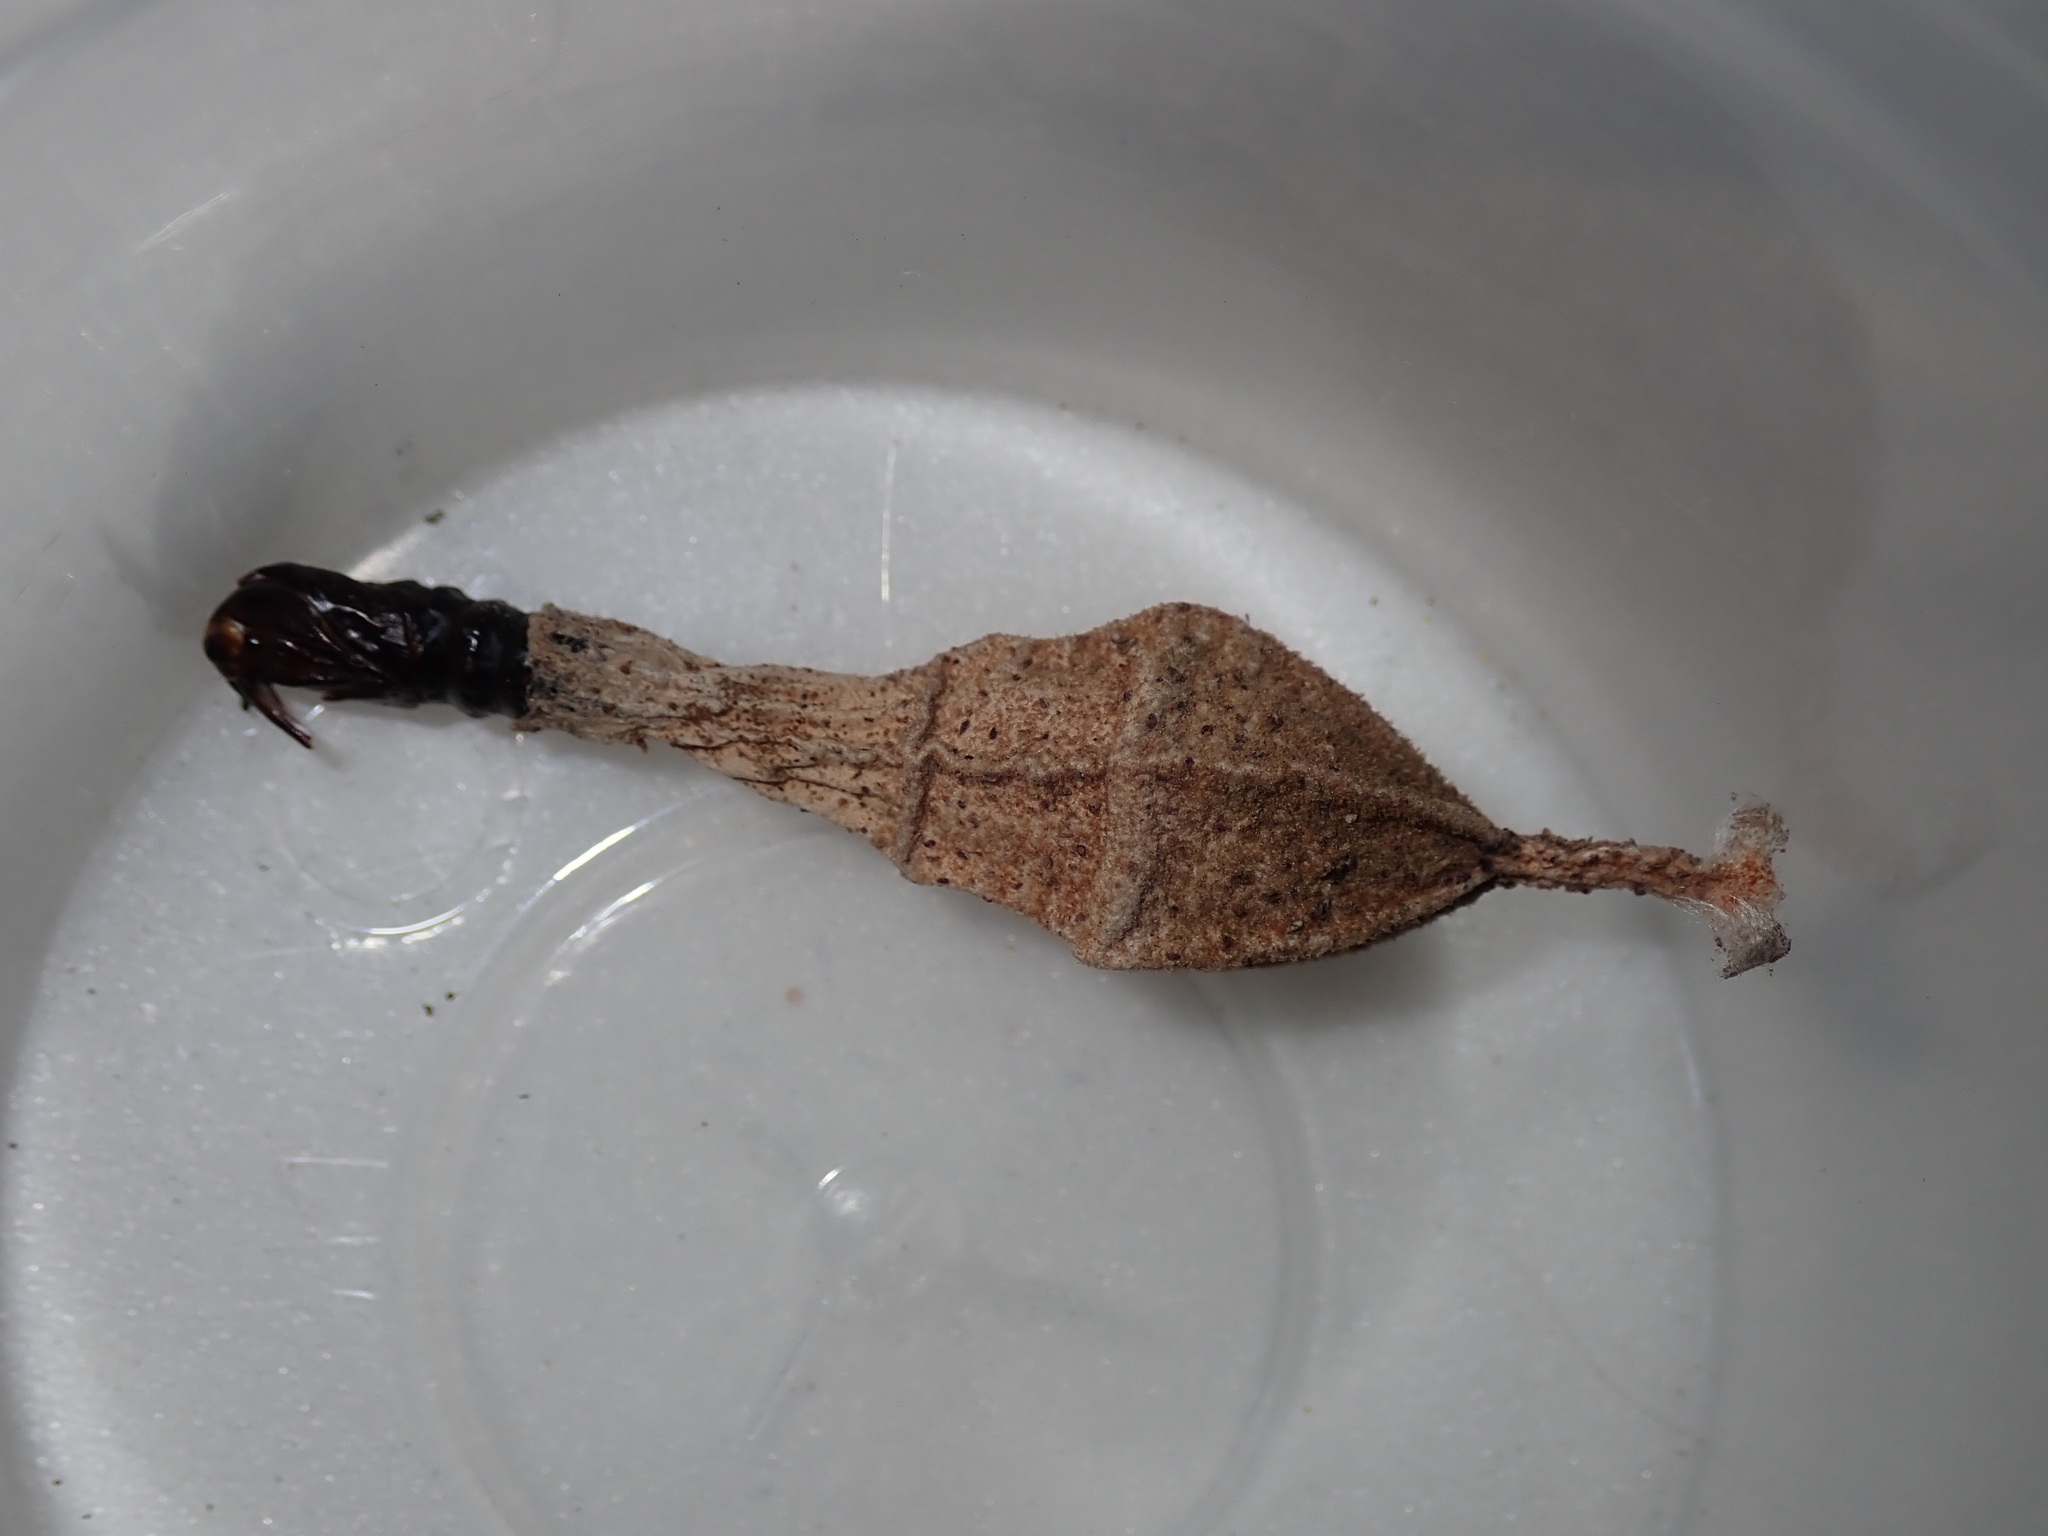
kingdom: Animalia
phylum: Arthropoda
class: Insecta
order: Lepidoptera
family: Psychidae
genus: Hyalarcta
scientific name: Hyalarcta nigrescens
